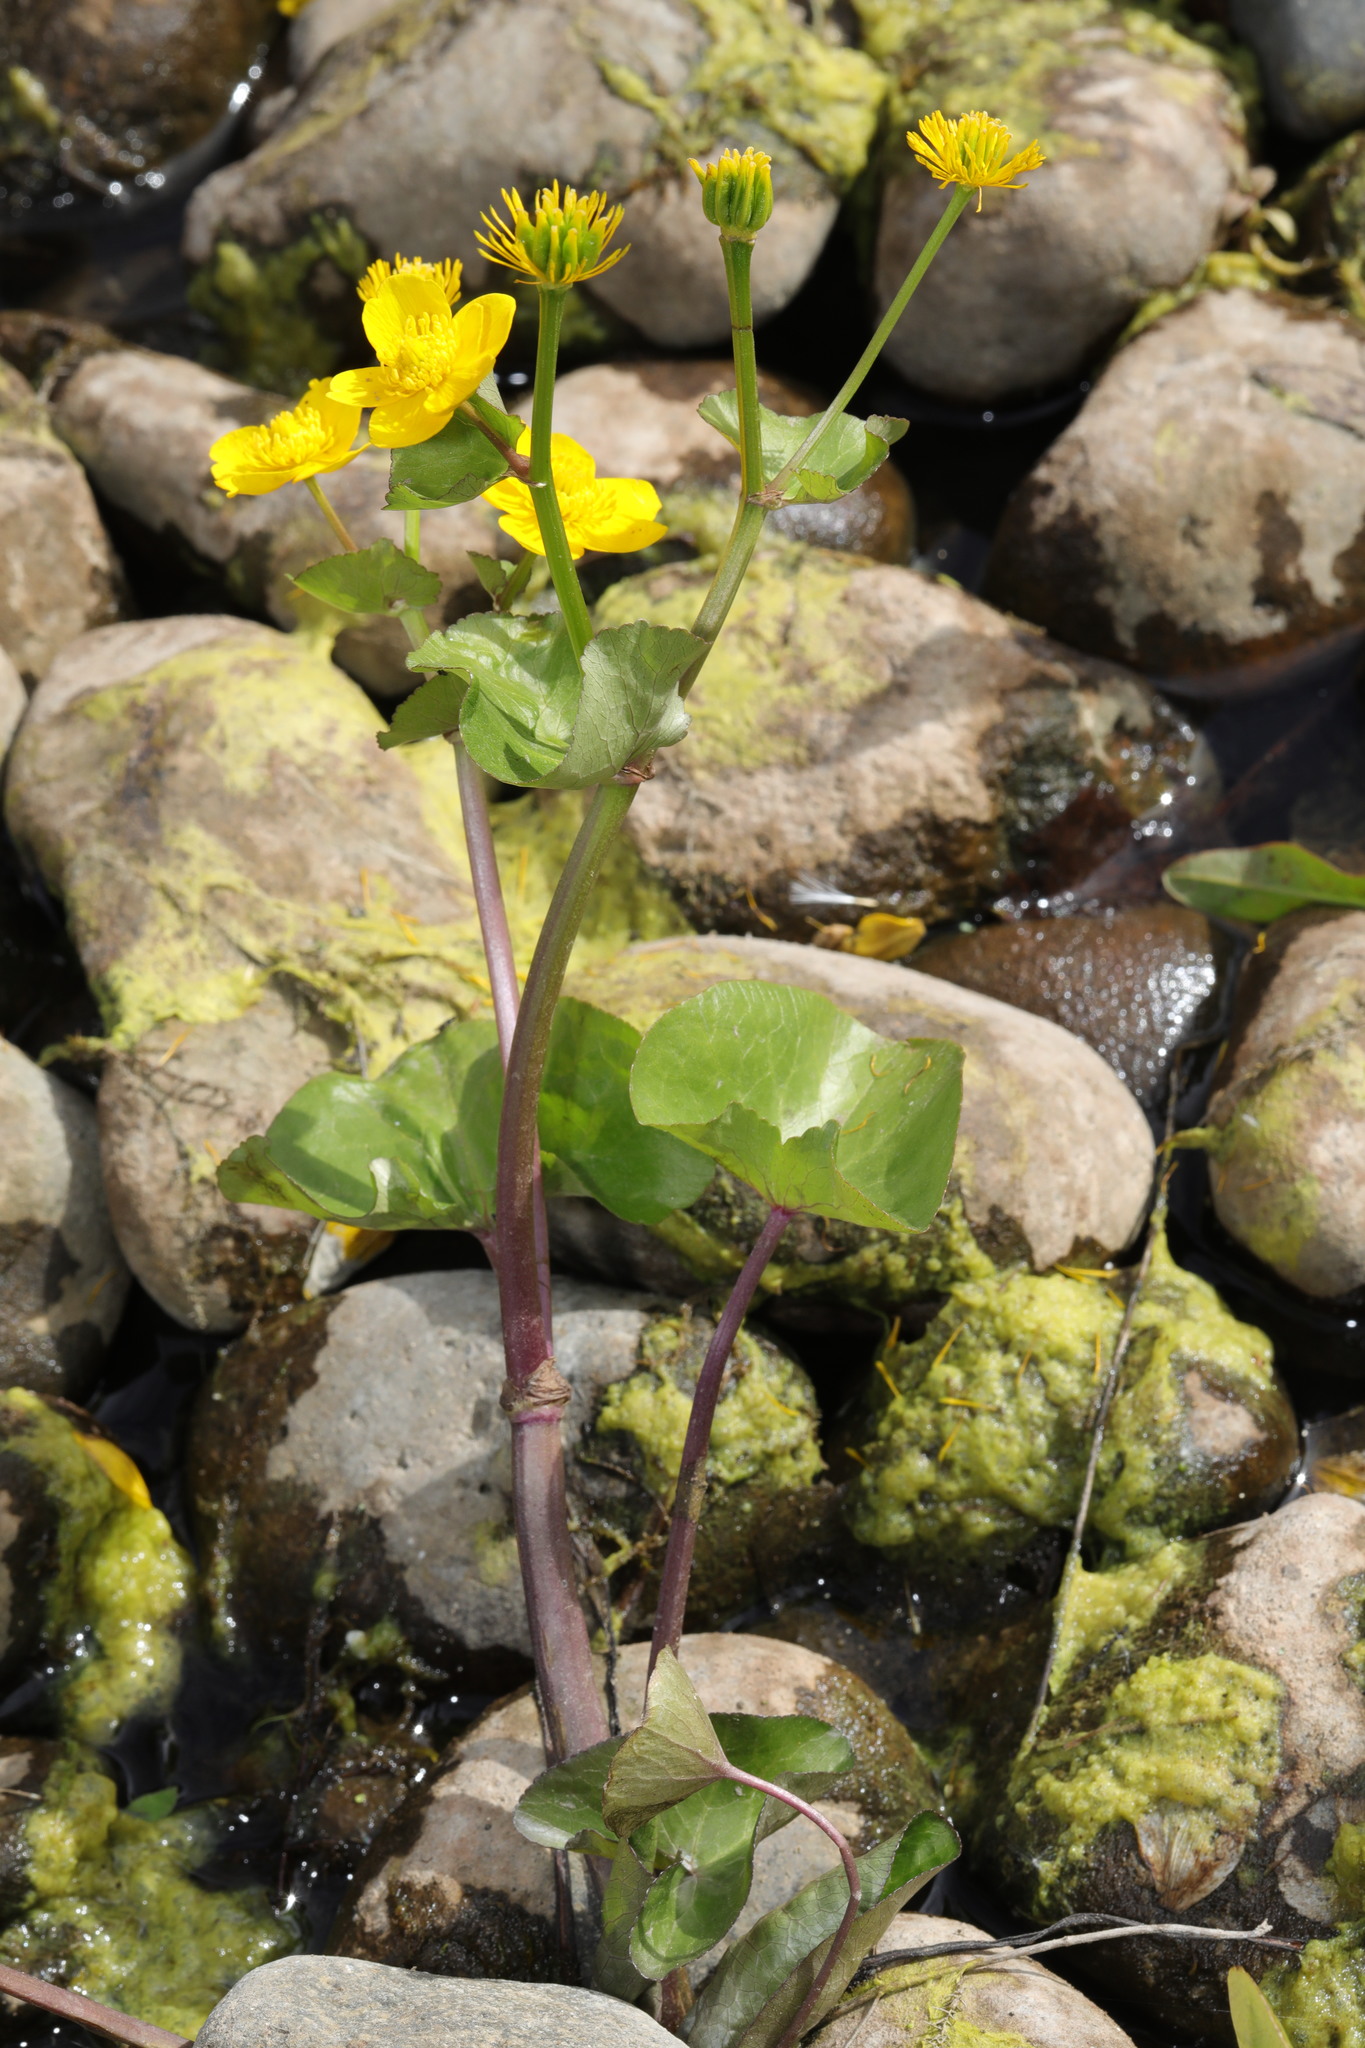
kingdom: Plantae
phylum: Tracheophyta
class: Magnoliopsida
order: Ranunculales
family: Ranunculaceae
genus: Caltha
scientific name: Caltha palustris
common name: Marsh marigold
